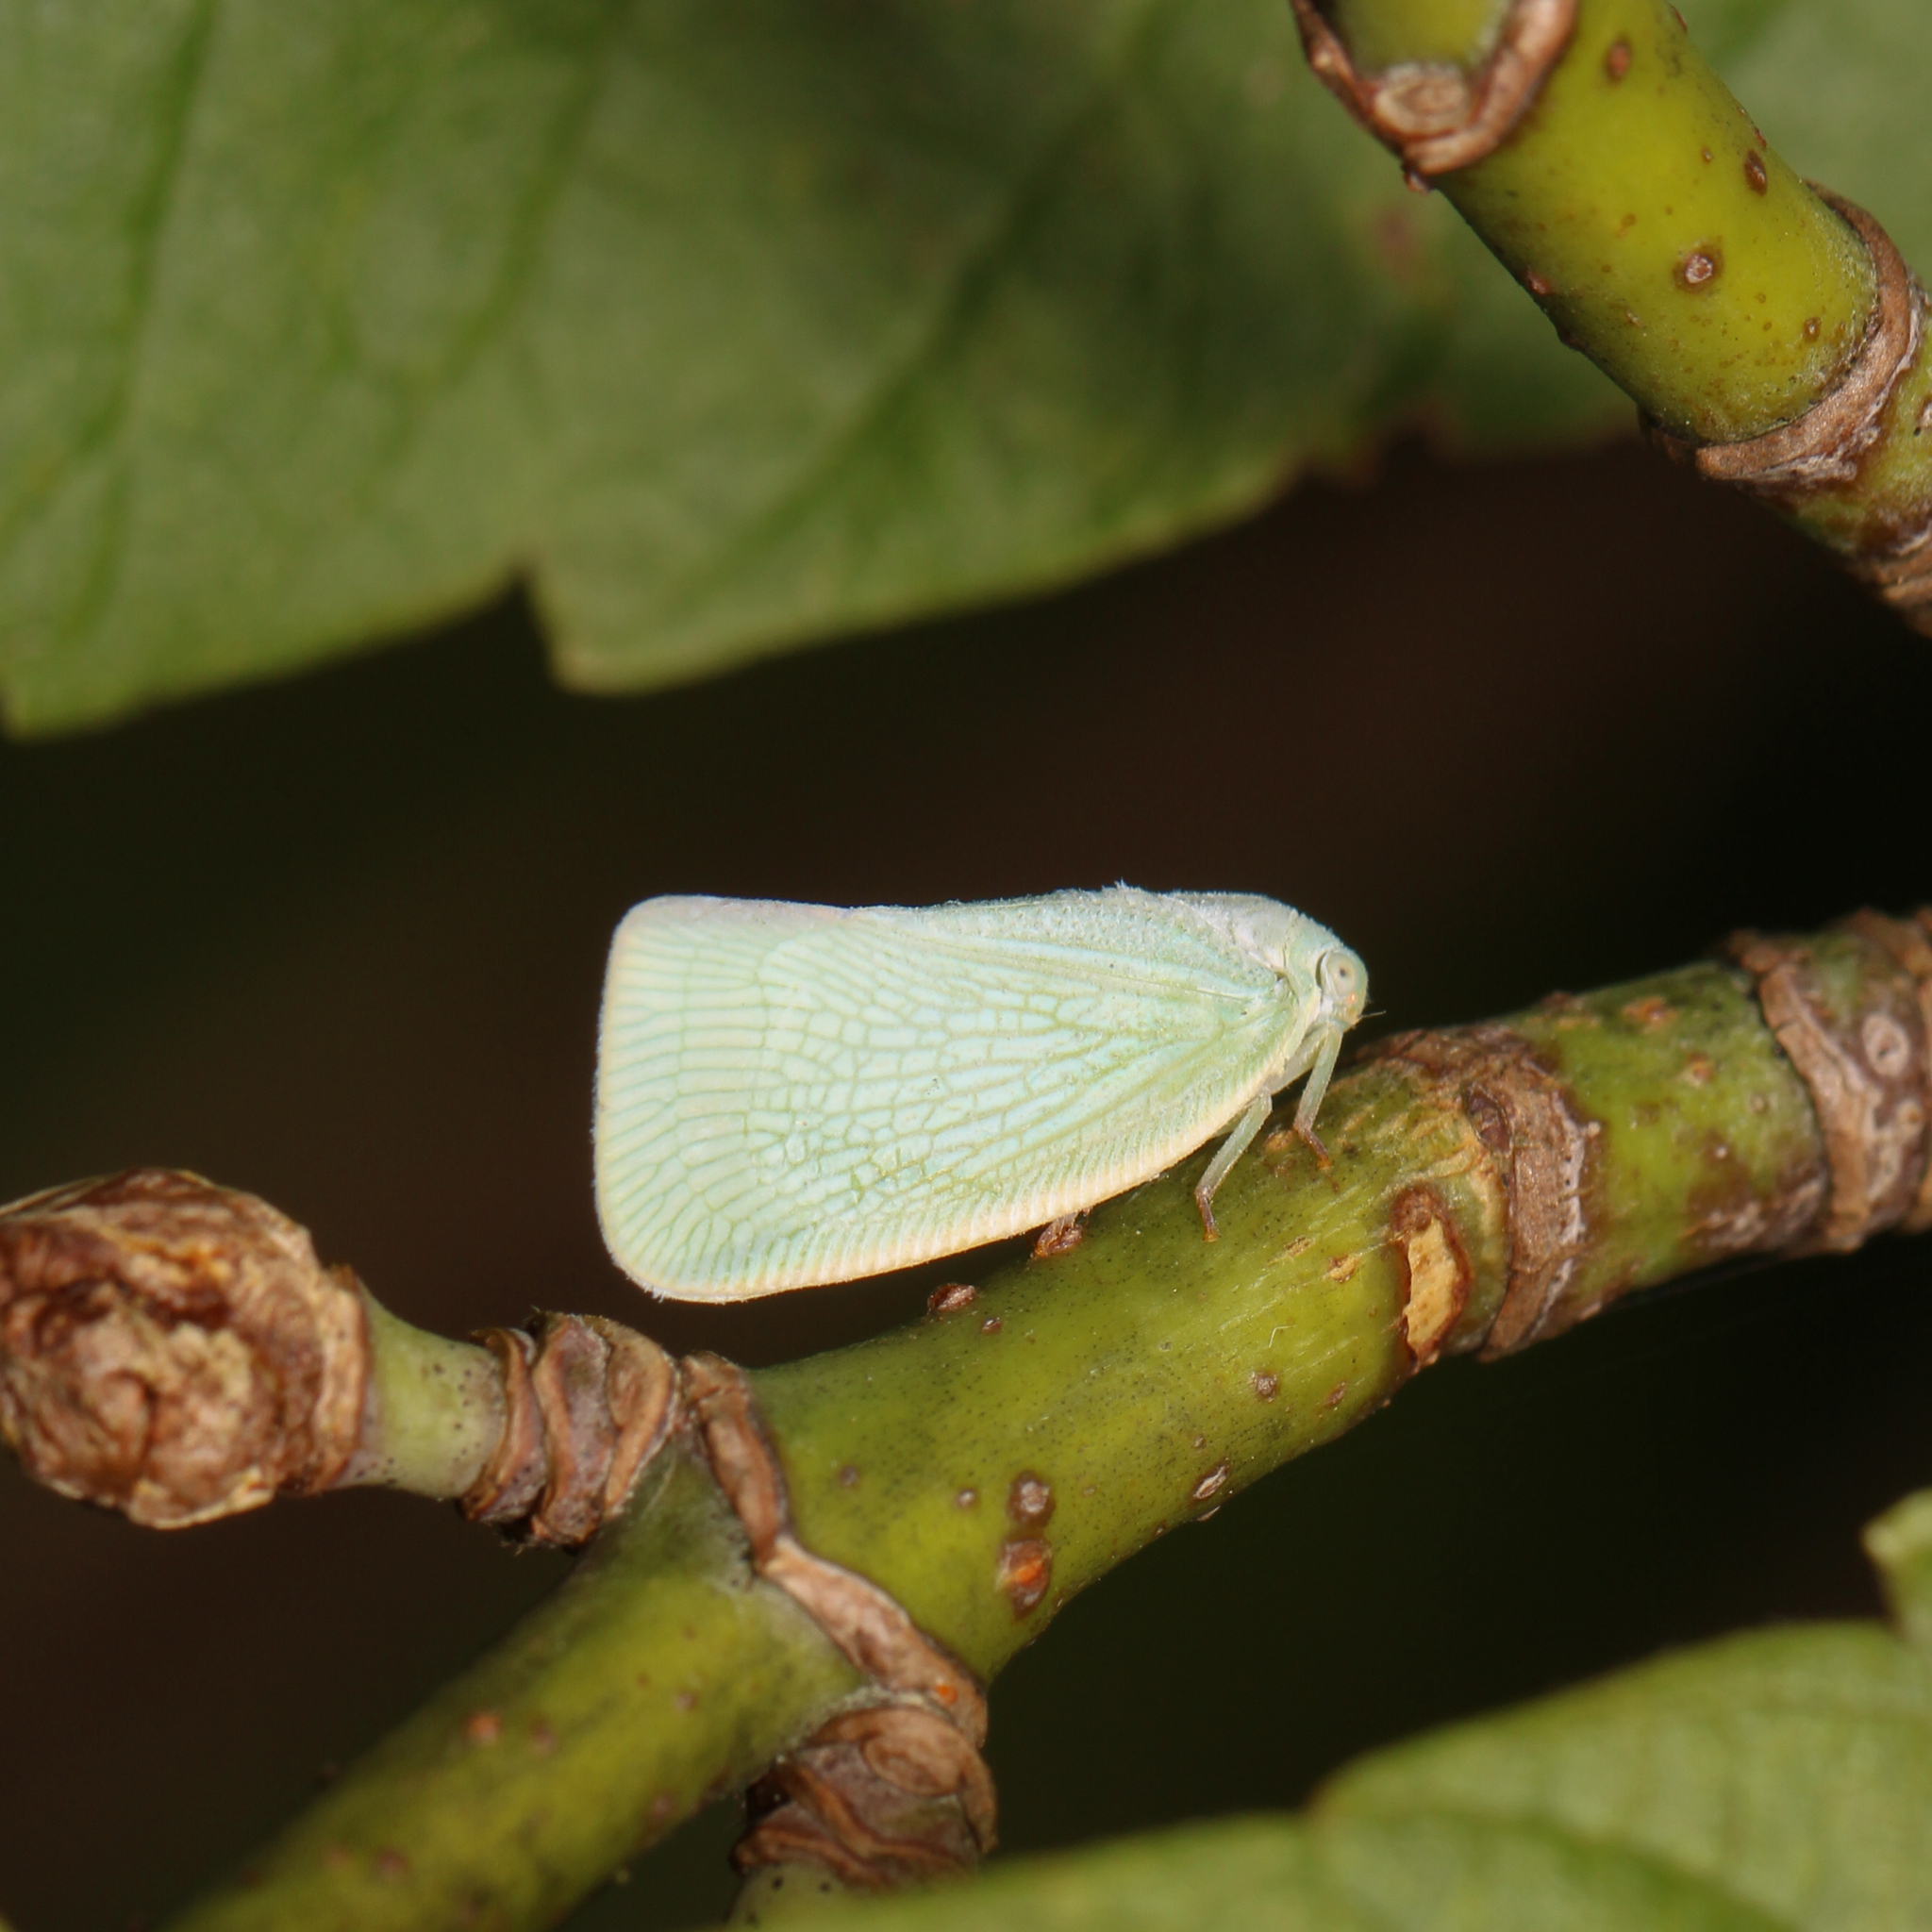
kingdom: Animalia
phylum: Arthropoda
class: Insecta
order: Hemiptera
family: Flatidae
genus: Flatormenis
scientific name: Flatormenis proxima
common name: Northern flatid planthopper
